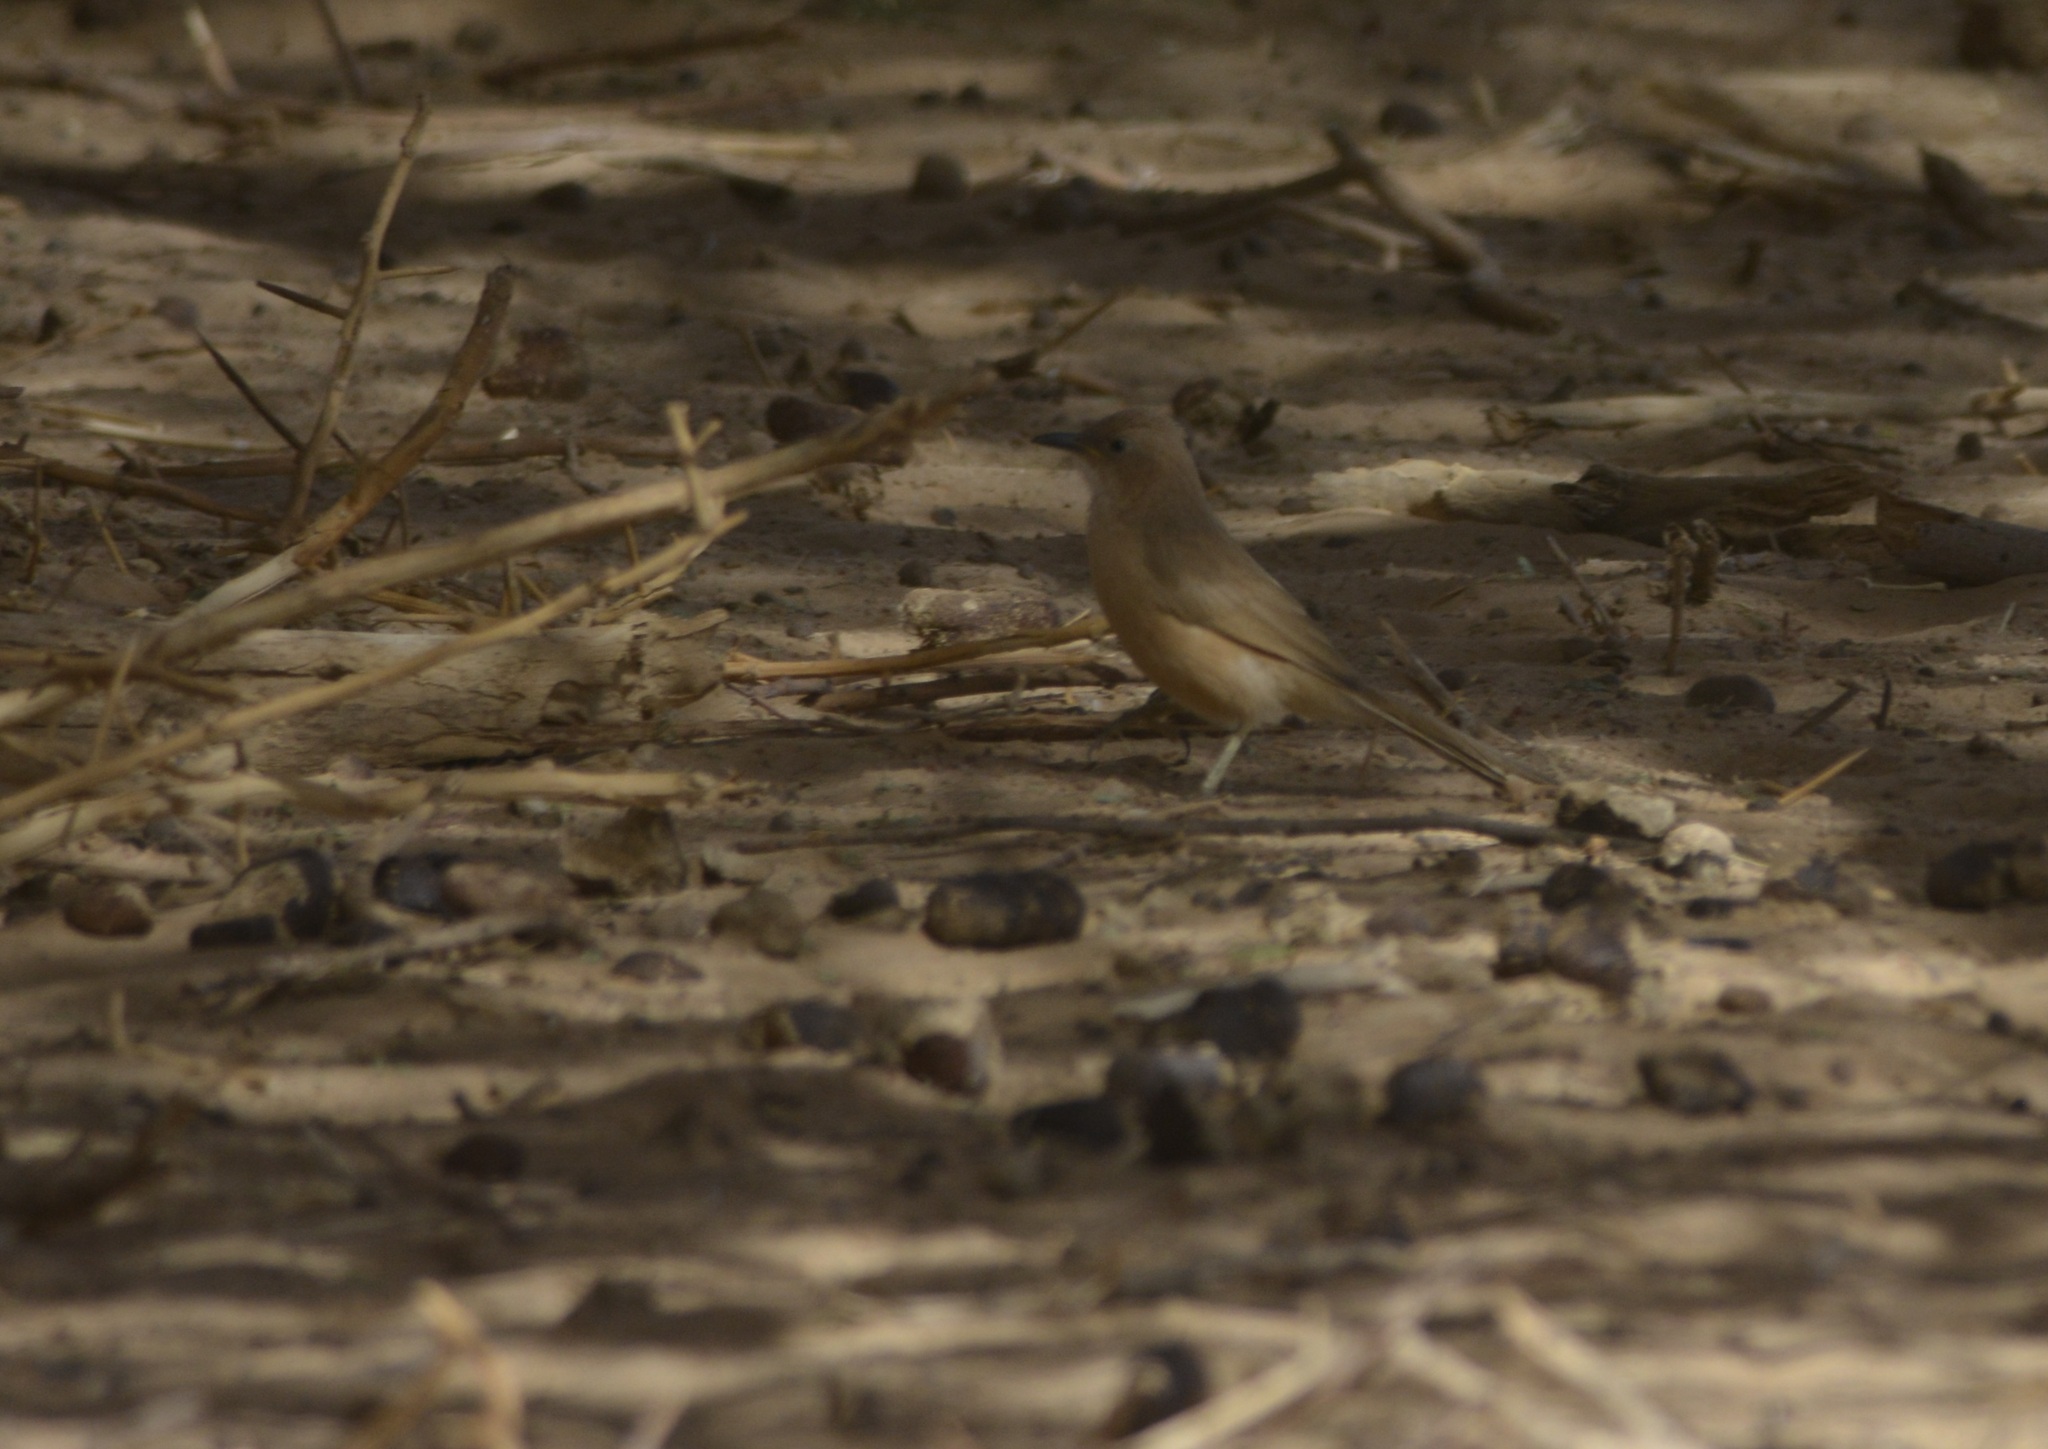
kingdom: Animalia
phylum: Chordata
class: Aves
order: Passeriformes
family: Leiothrichidae
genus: Turdoides
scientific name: Turdoides fulva
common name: Fulvous babbler
